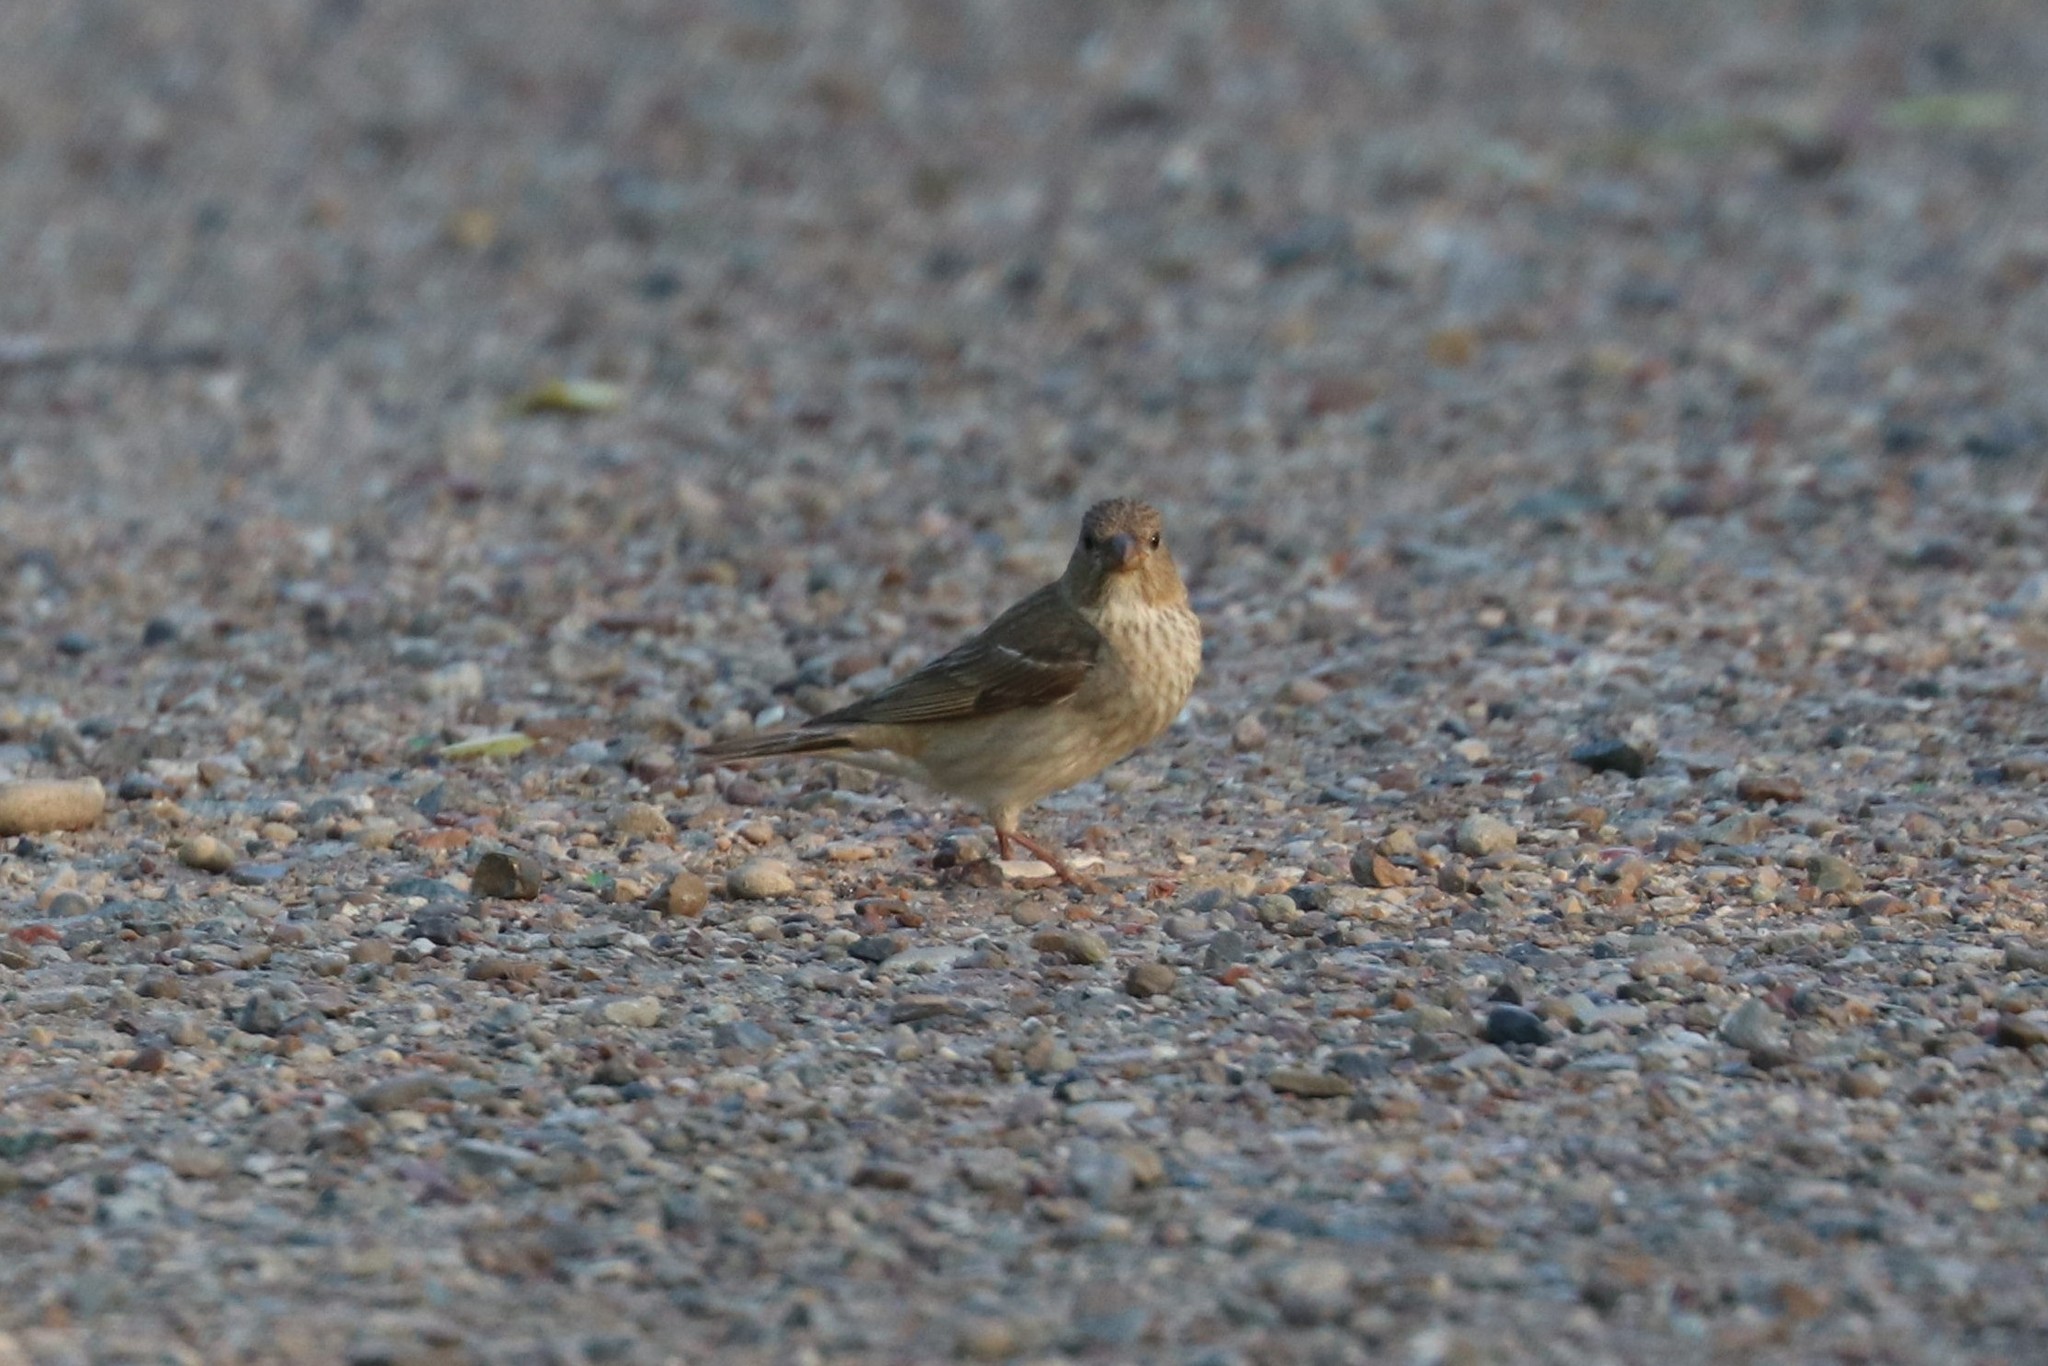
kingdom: Animalia
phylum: Chordata
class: Aves
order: Passeriformes
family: Fringillidae
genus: Carpodacus
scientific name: Carpodacus erythrinus
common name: Common rosefinch
